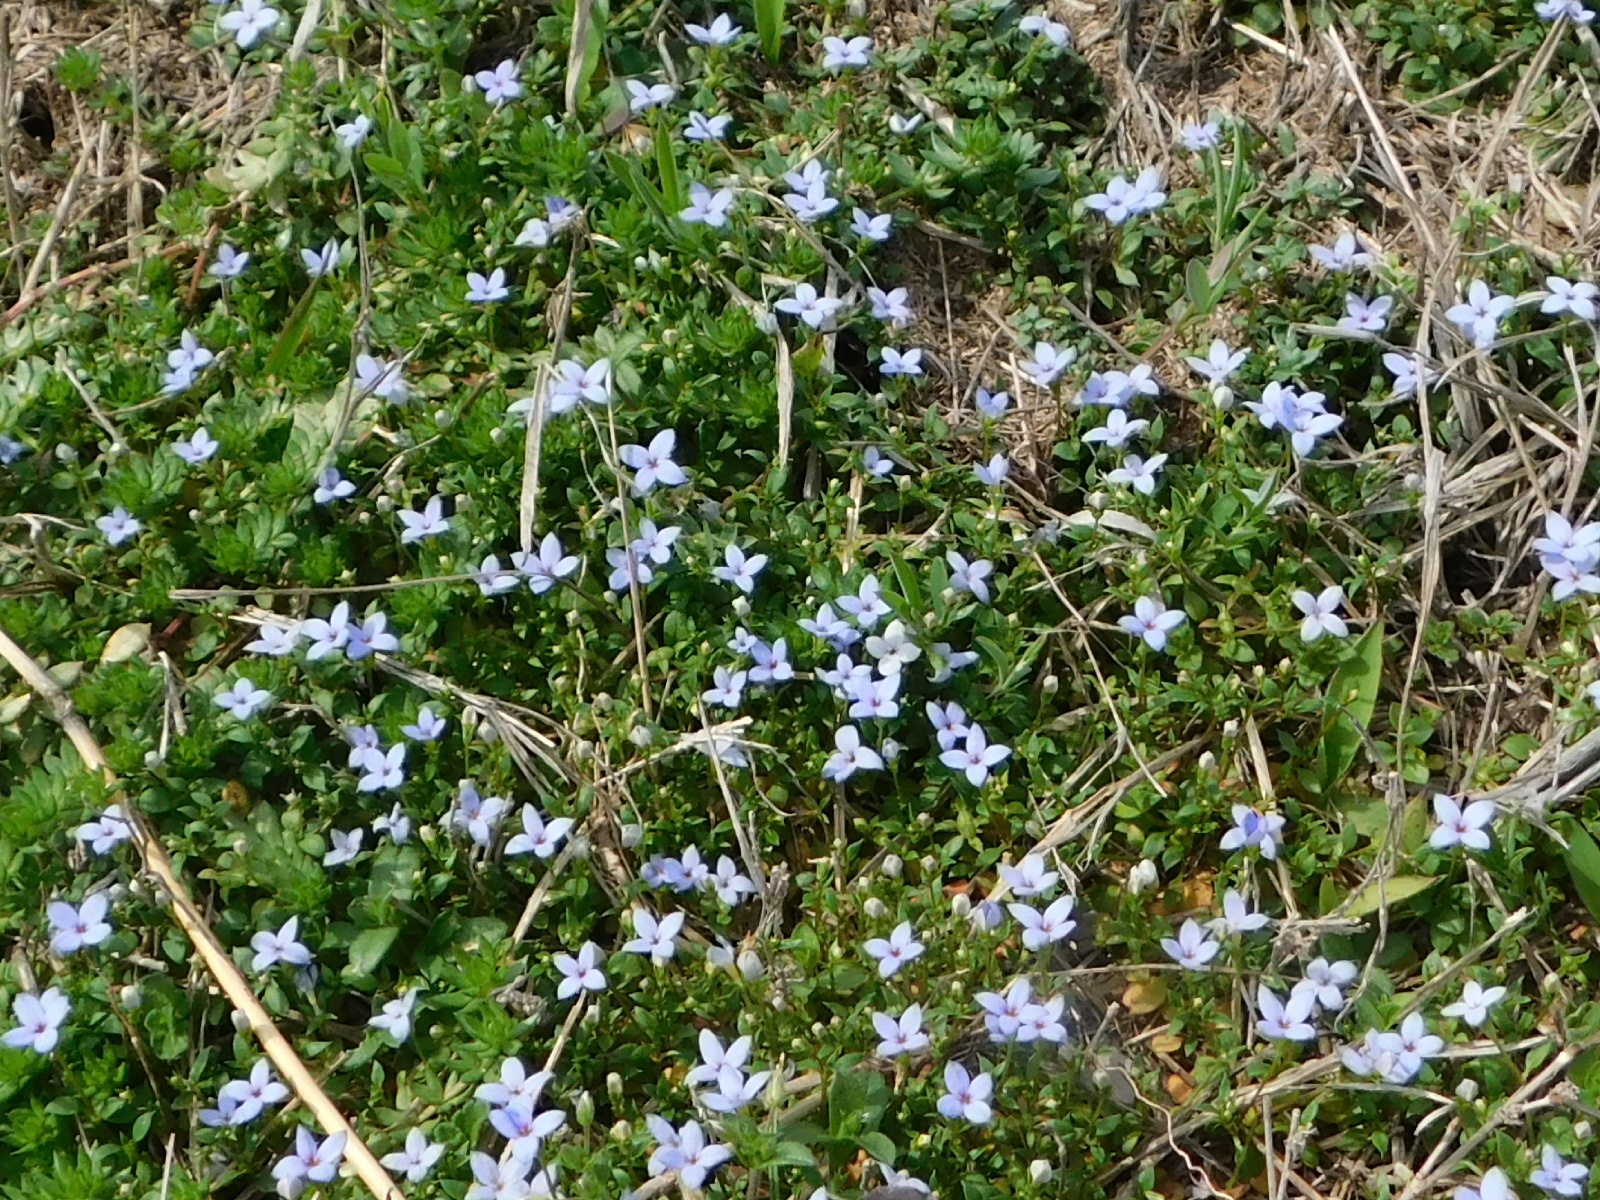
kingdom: Plantae
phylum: Tracheophyta
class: Magnoliopsida
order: Gentianales
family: Rubiaceae
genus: Houstonia
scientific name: Houstonia pusilla
